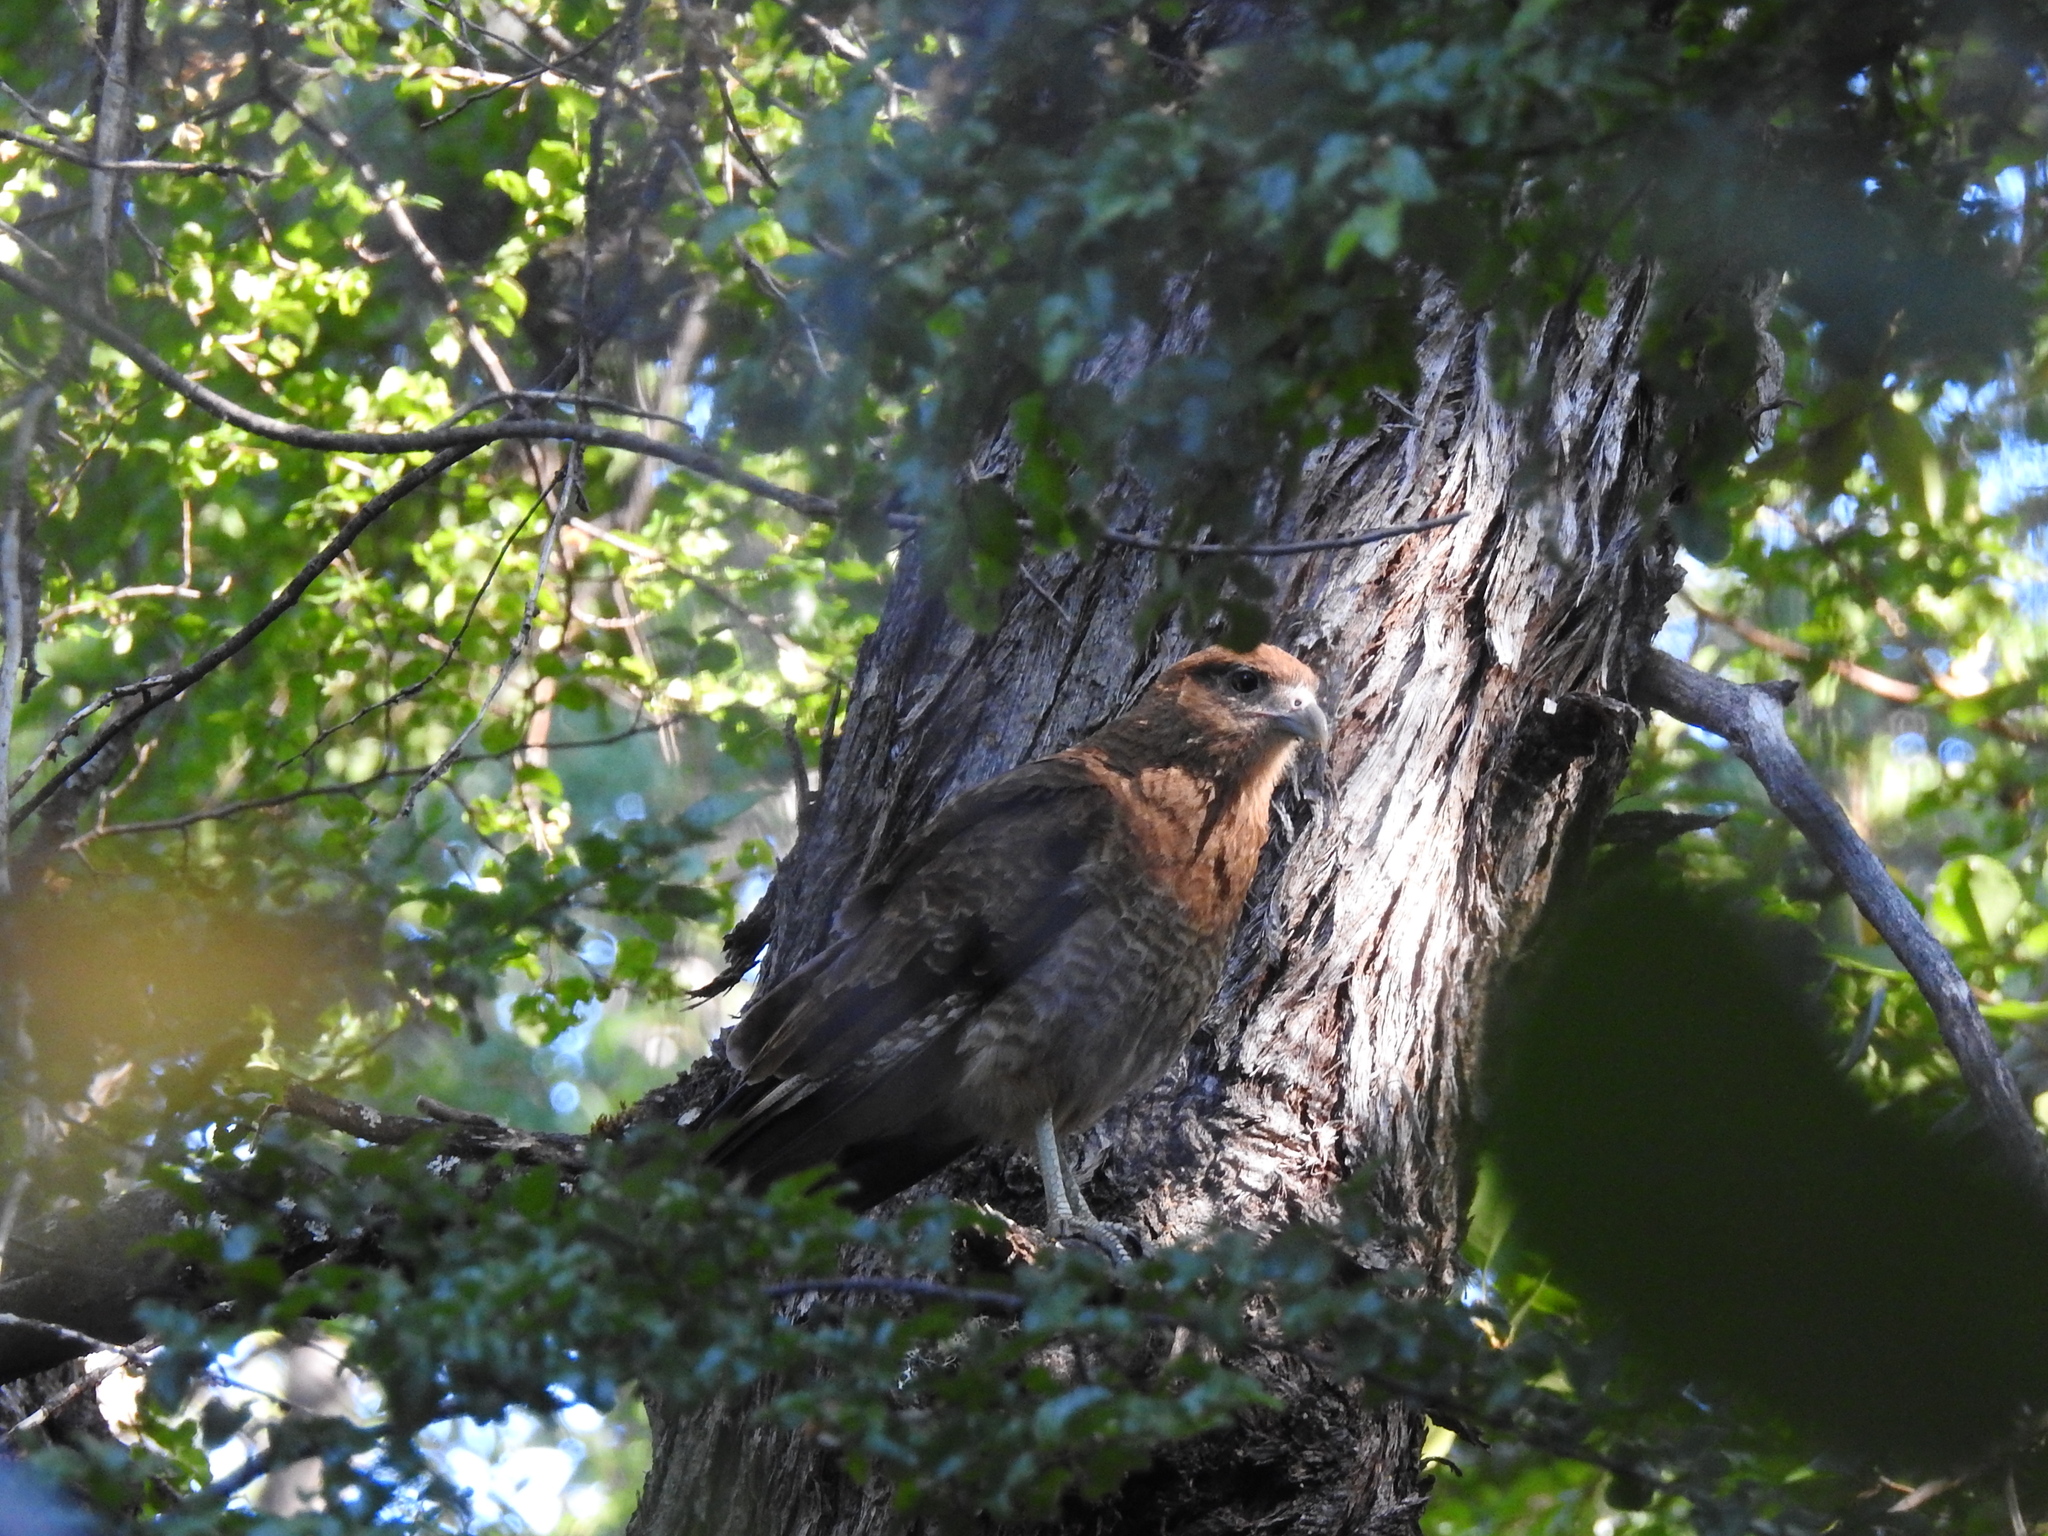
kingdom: Animalia
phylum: Chordata
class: Aves
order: Falconiformes
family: Falconidae
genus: Daptrius
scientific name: Daptrius
